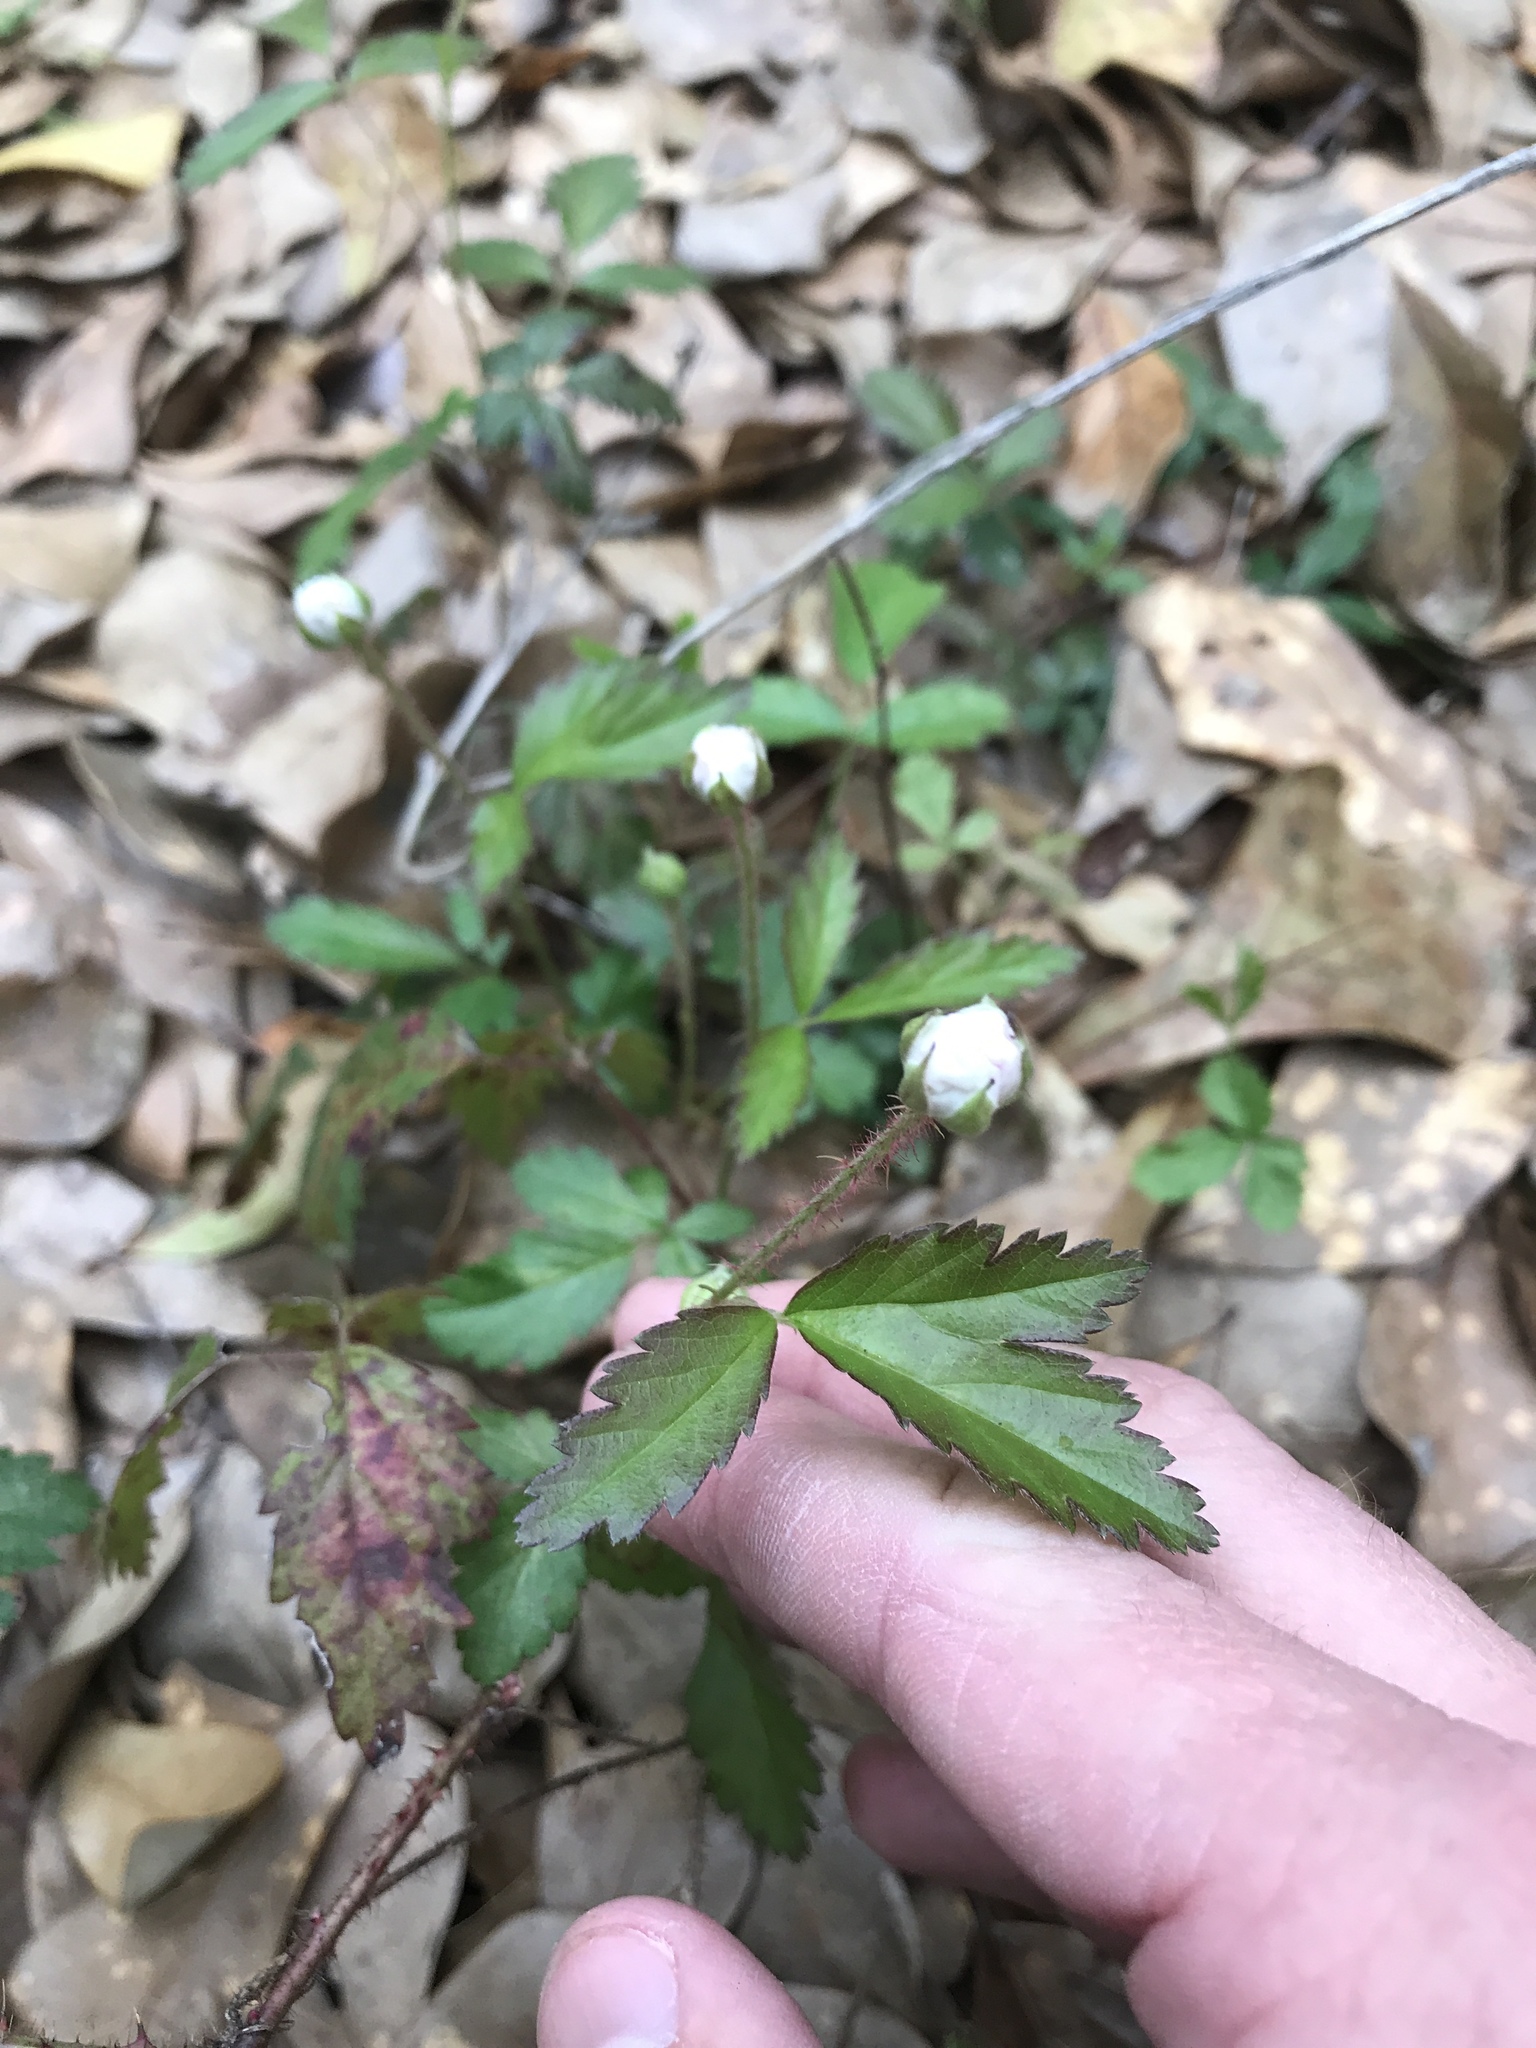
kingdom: Plantae
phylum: Tracheophyta
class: Magnoliopsida
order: Rosales
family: Rosaceae
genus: Rubus
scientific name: Rubus trivialis
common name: Southern dewberry
